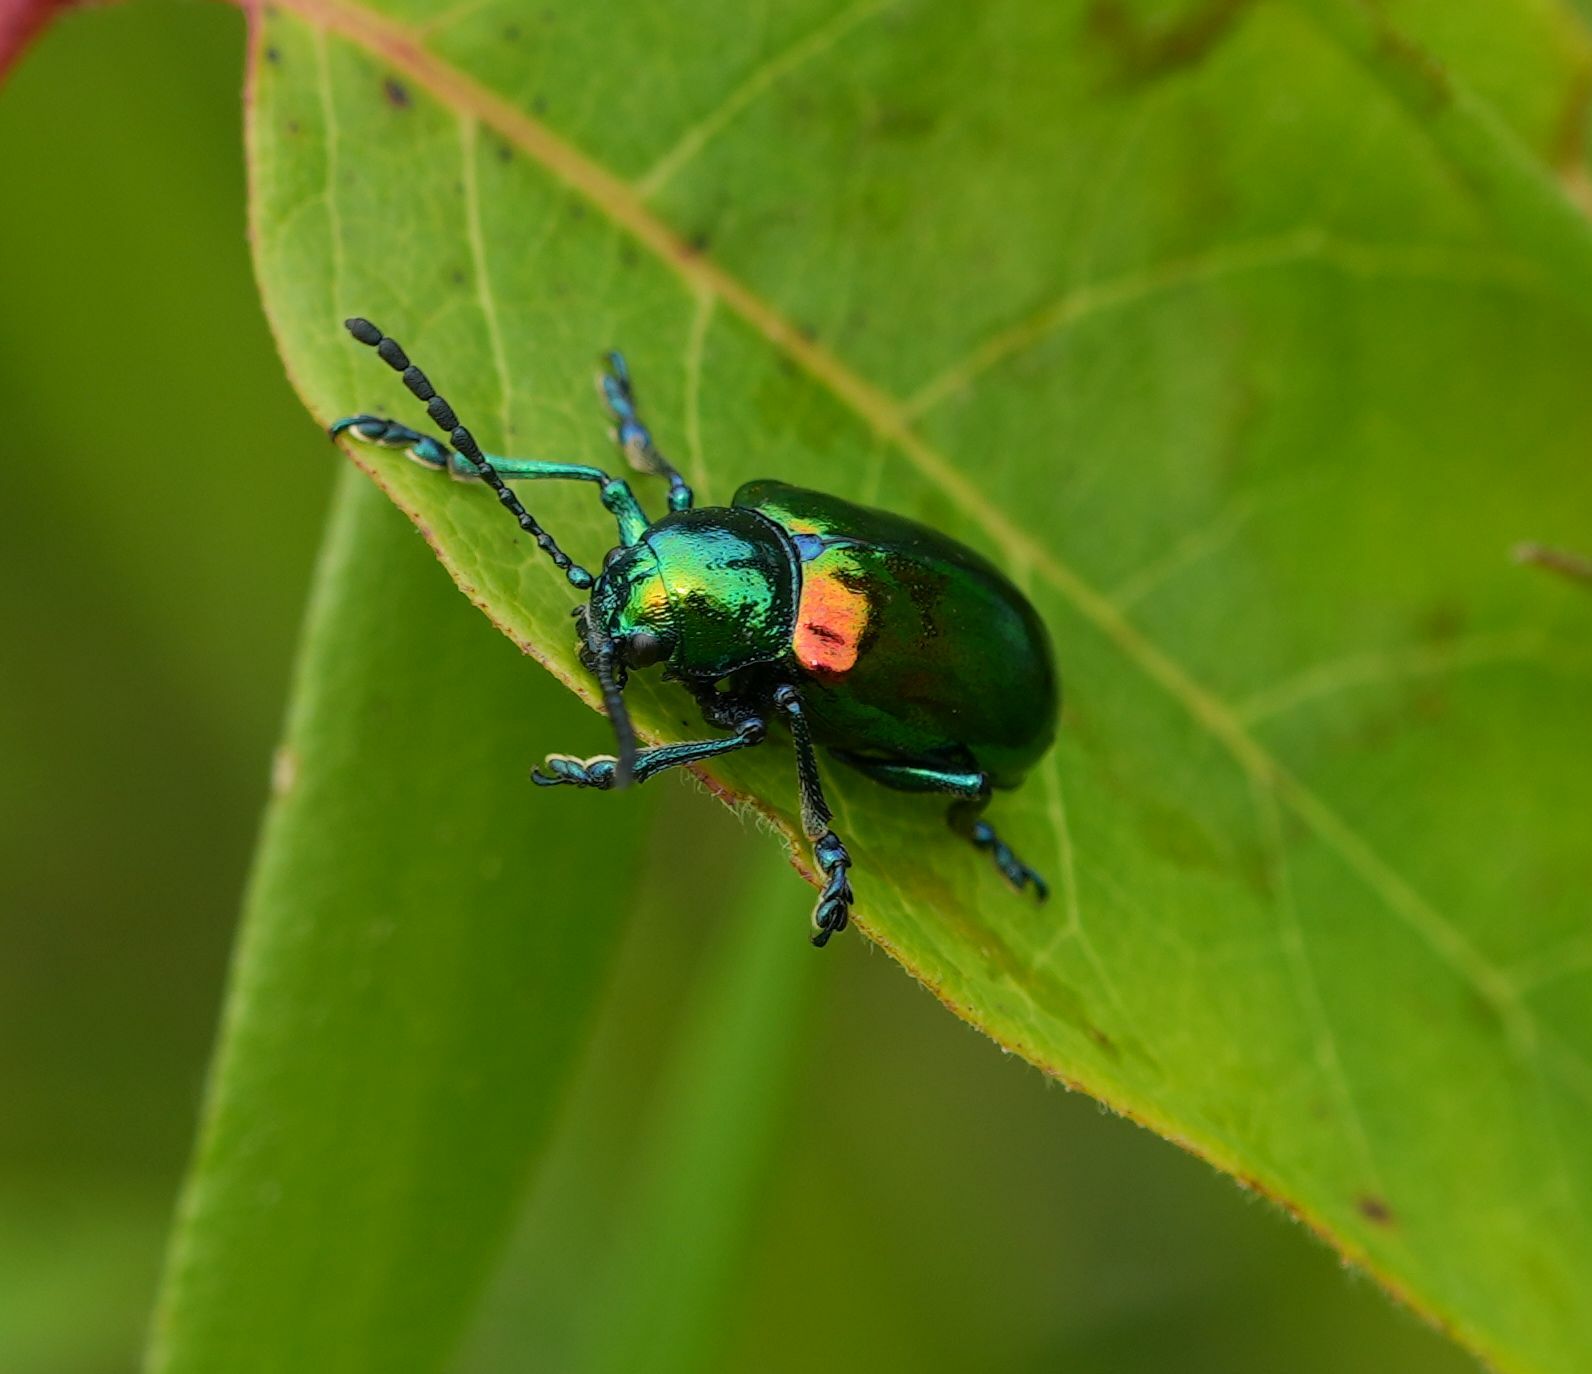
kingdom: Animalia
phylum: Arthropoda
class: Insecta
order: Coleoptera
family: Chrysomelidae
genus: Chrysochus
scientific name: Chrysochus auratus
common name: Dogbane leaf beetle
